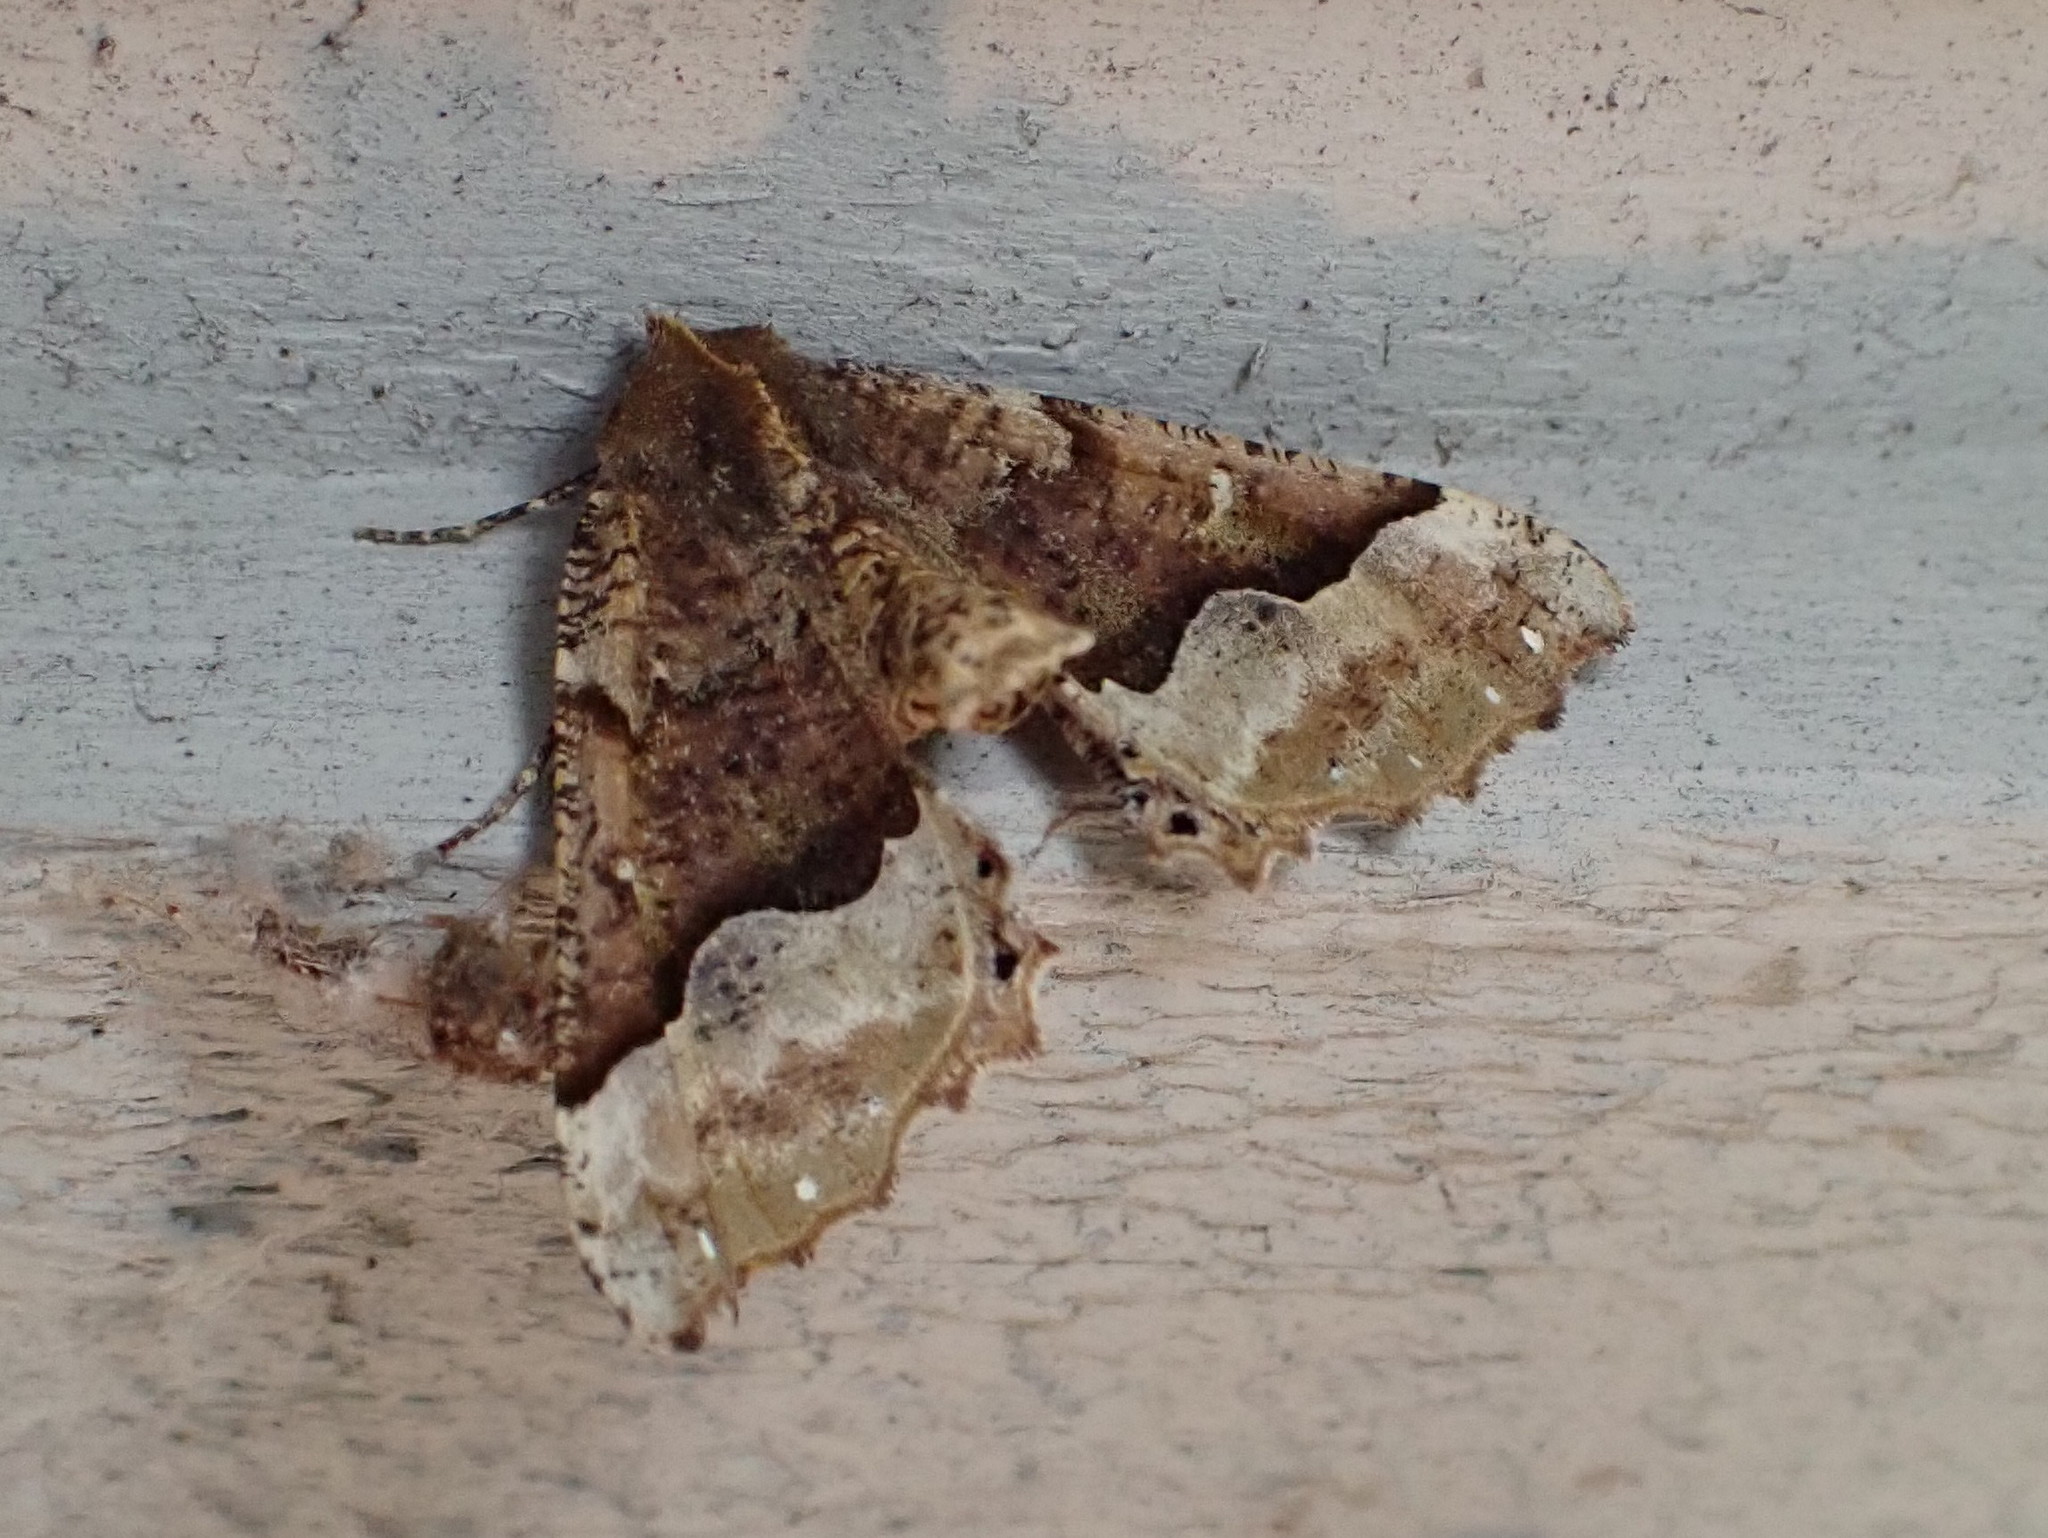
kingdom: Animalia
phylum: Arthropoda
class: Insecta
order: Lepidoptera
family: Geometridae
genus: Pero
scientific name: Pero morrisonaria
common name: Morrison's pero
